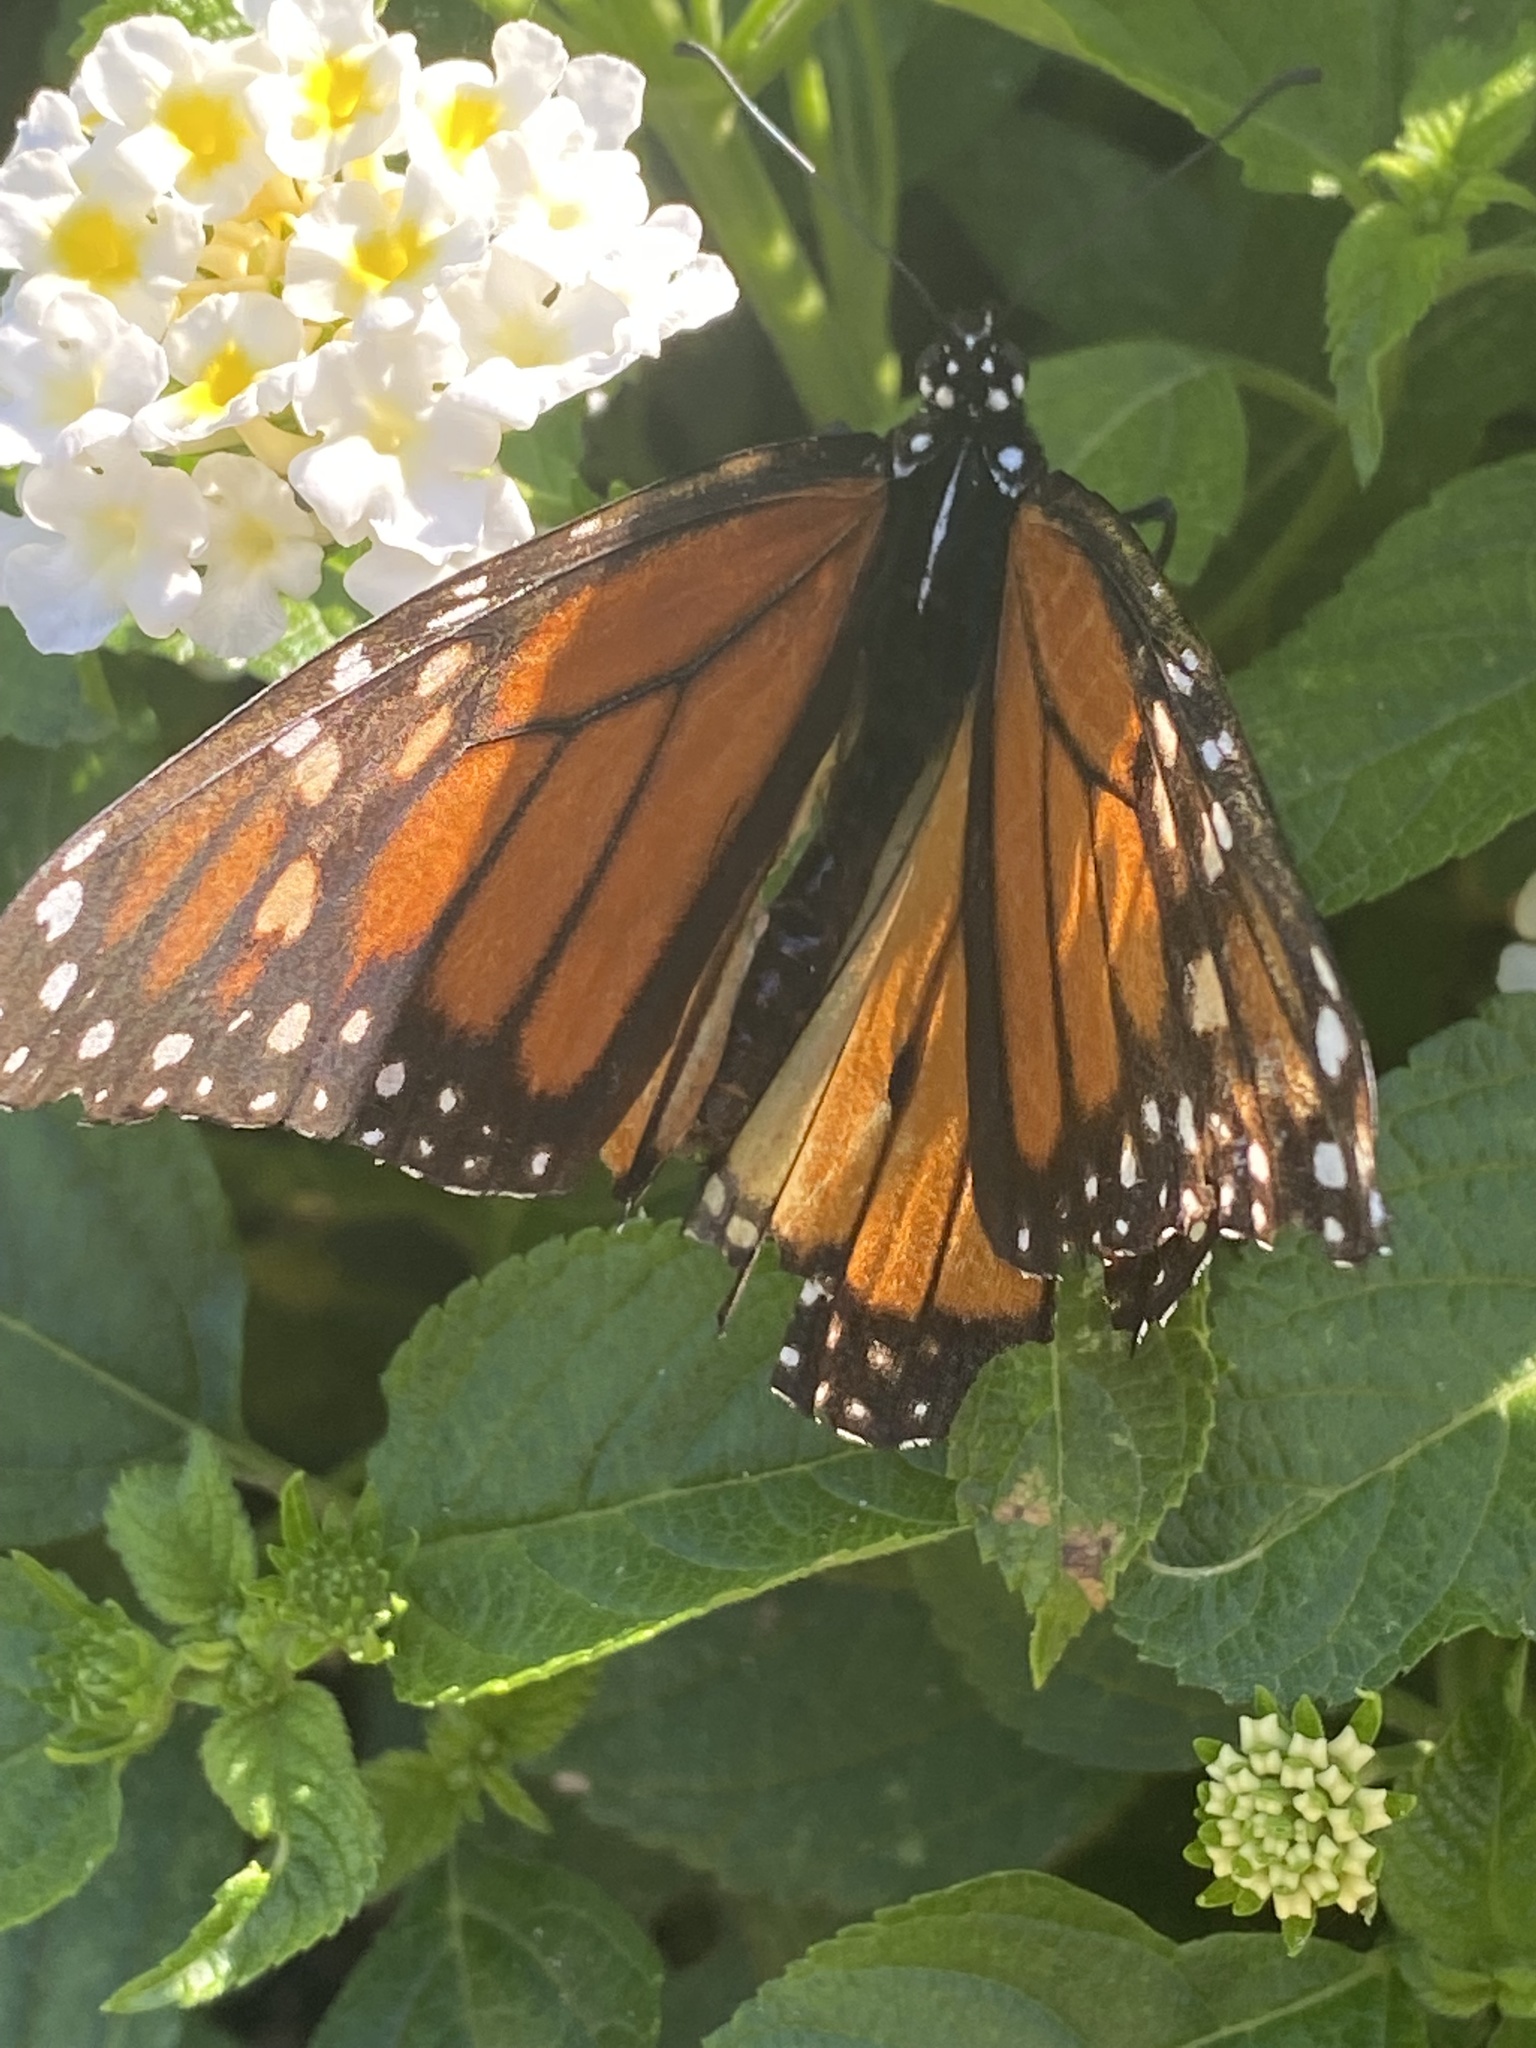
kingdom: Animalia
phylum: Arthropoda
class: Insecta
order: Lepidoptera
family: Nymphalidae
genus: Danaus
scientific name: Danaus plexippus
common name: Monarch
